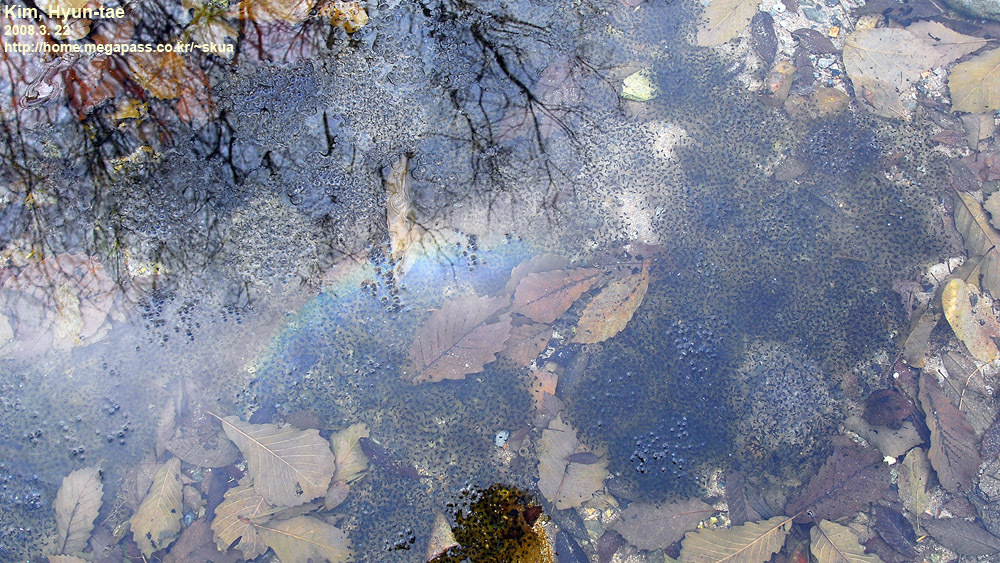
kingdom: Animalia
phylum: Chordata
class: Amphibia
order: Anura
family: Ranidae
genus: Rana
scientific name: Rana huanrenensis
